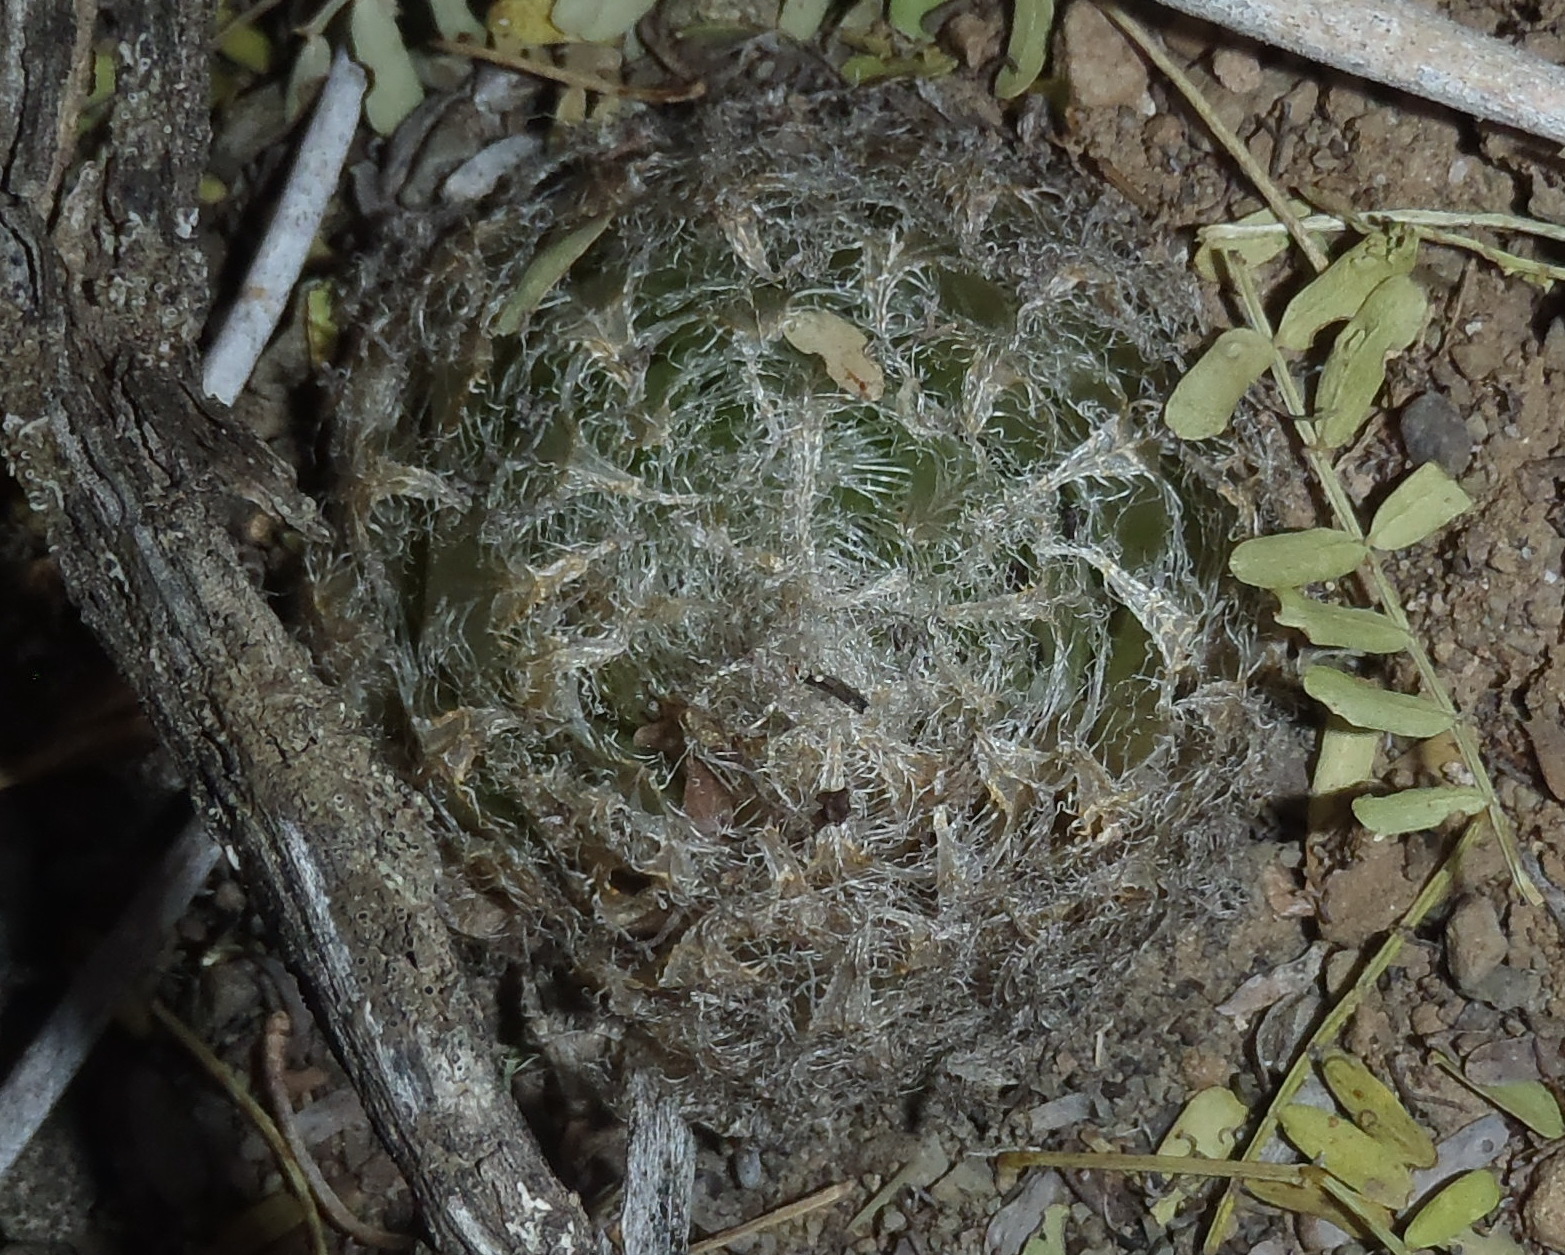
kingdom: Plantae
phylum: Tracheophyta
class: Liliopsida
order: Asparagales
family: Asphodelaceae
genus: Haworthia
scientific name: Haworthia bolusii
